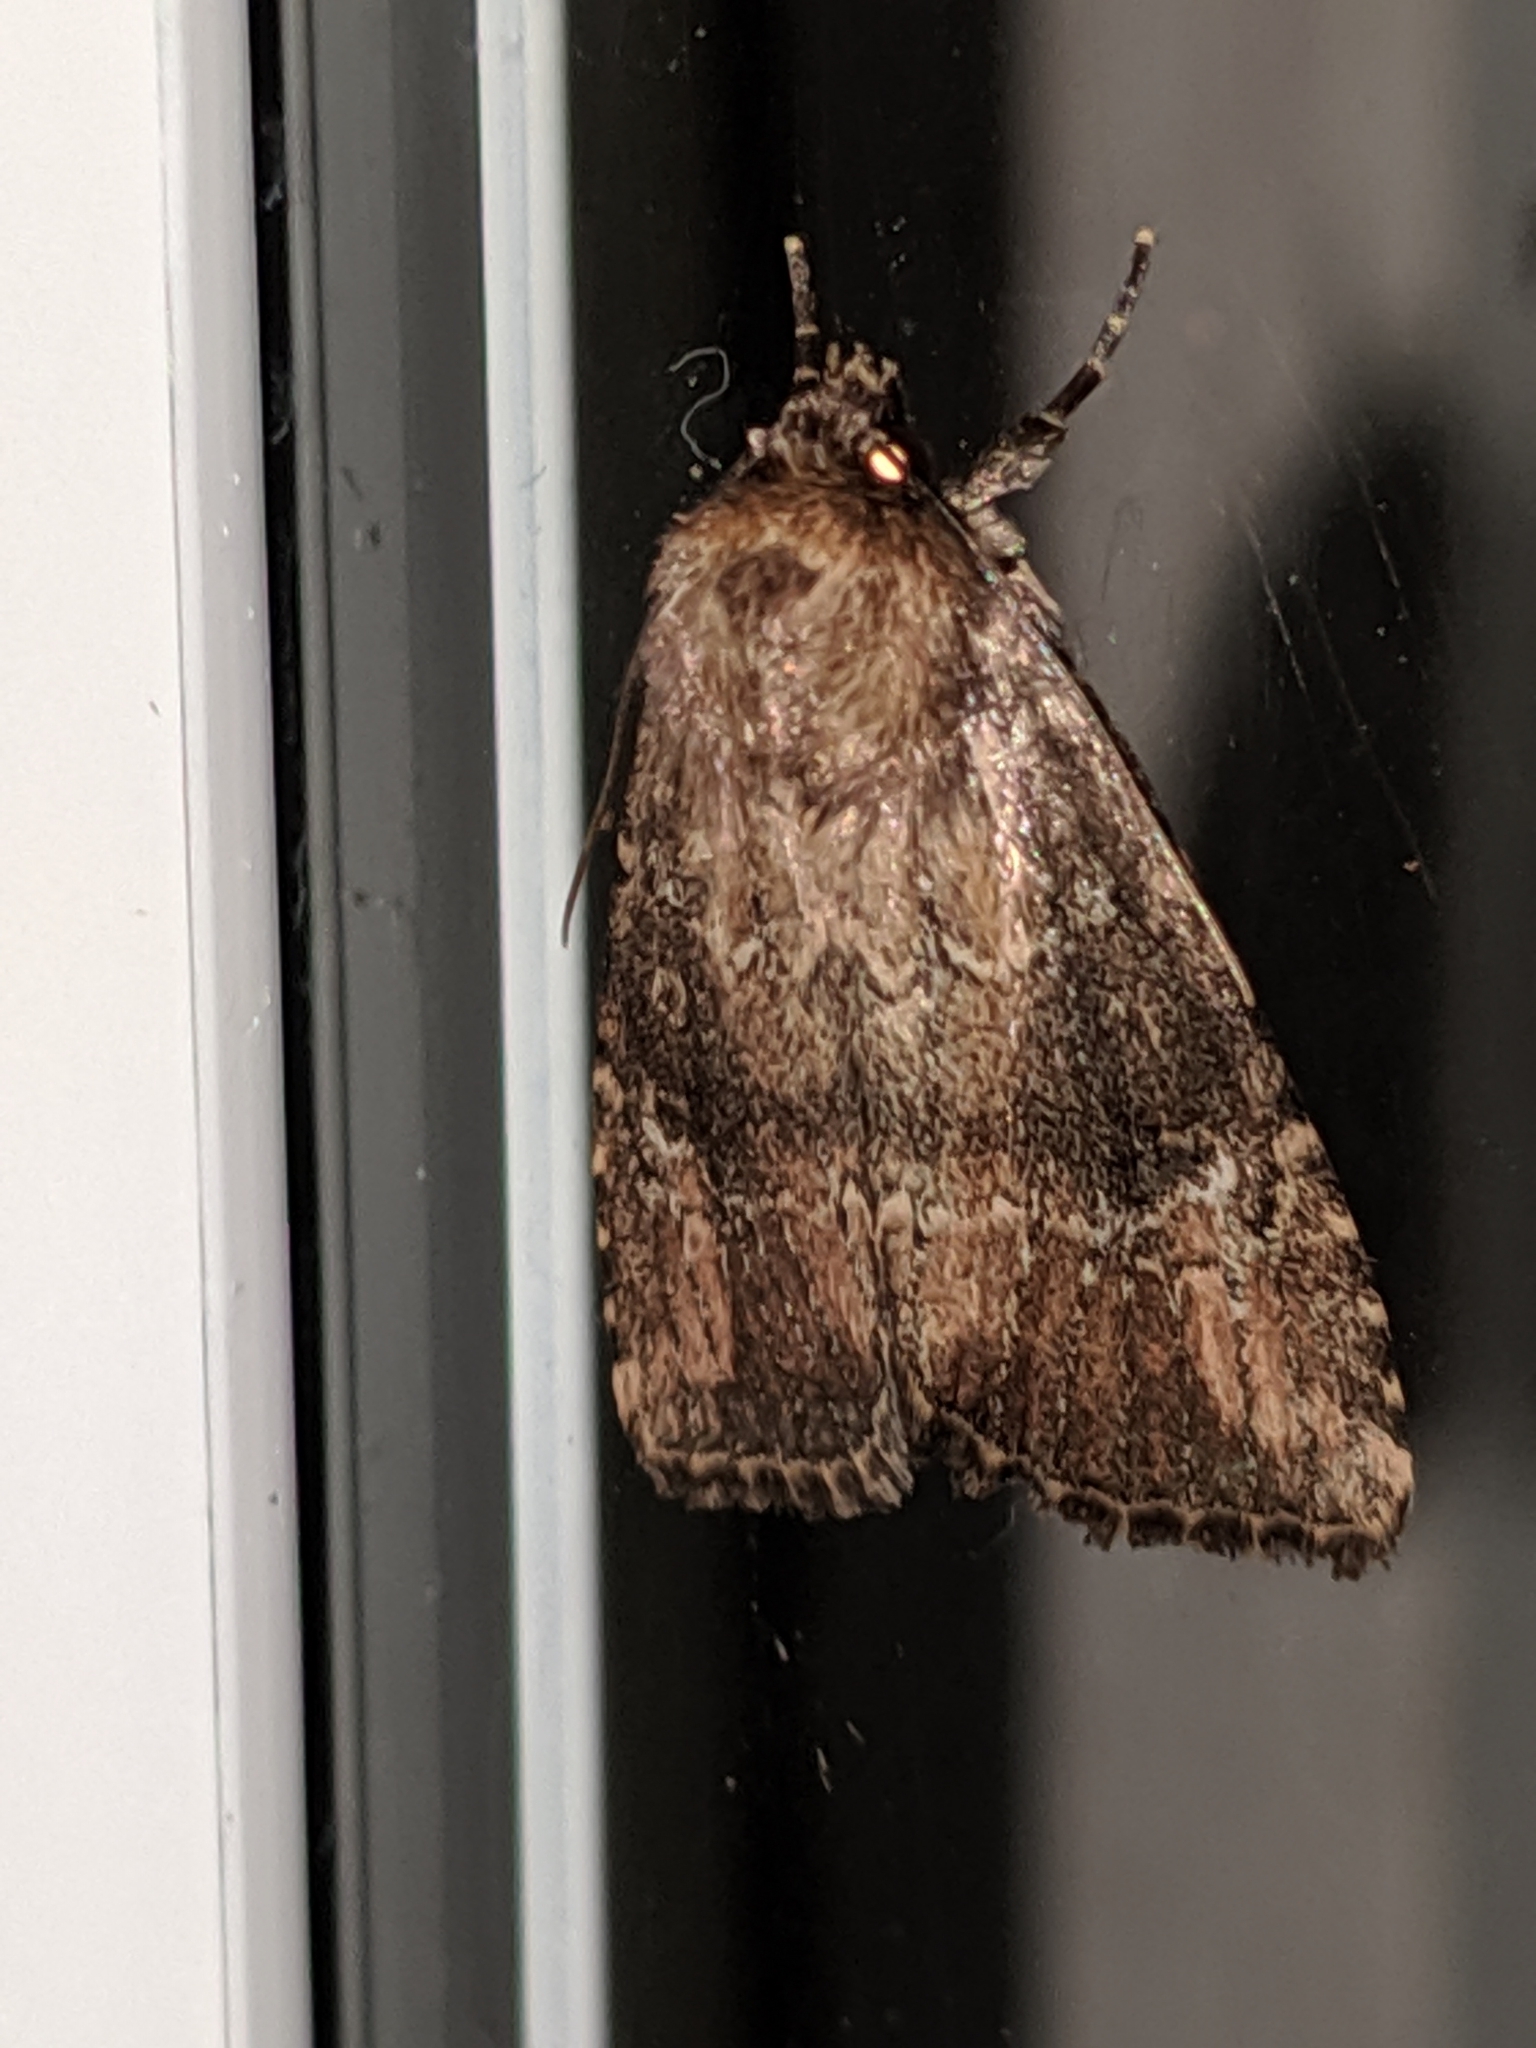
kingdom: Animalia
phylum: Arthropoda
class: Insecta
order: Lepidoptera
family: Noctuidae
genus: Amphipyra
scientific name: Amphipyra pyramidoides
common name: American copper underwing
